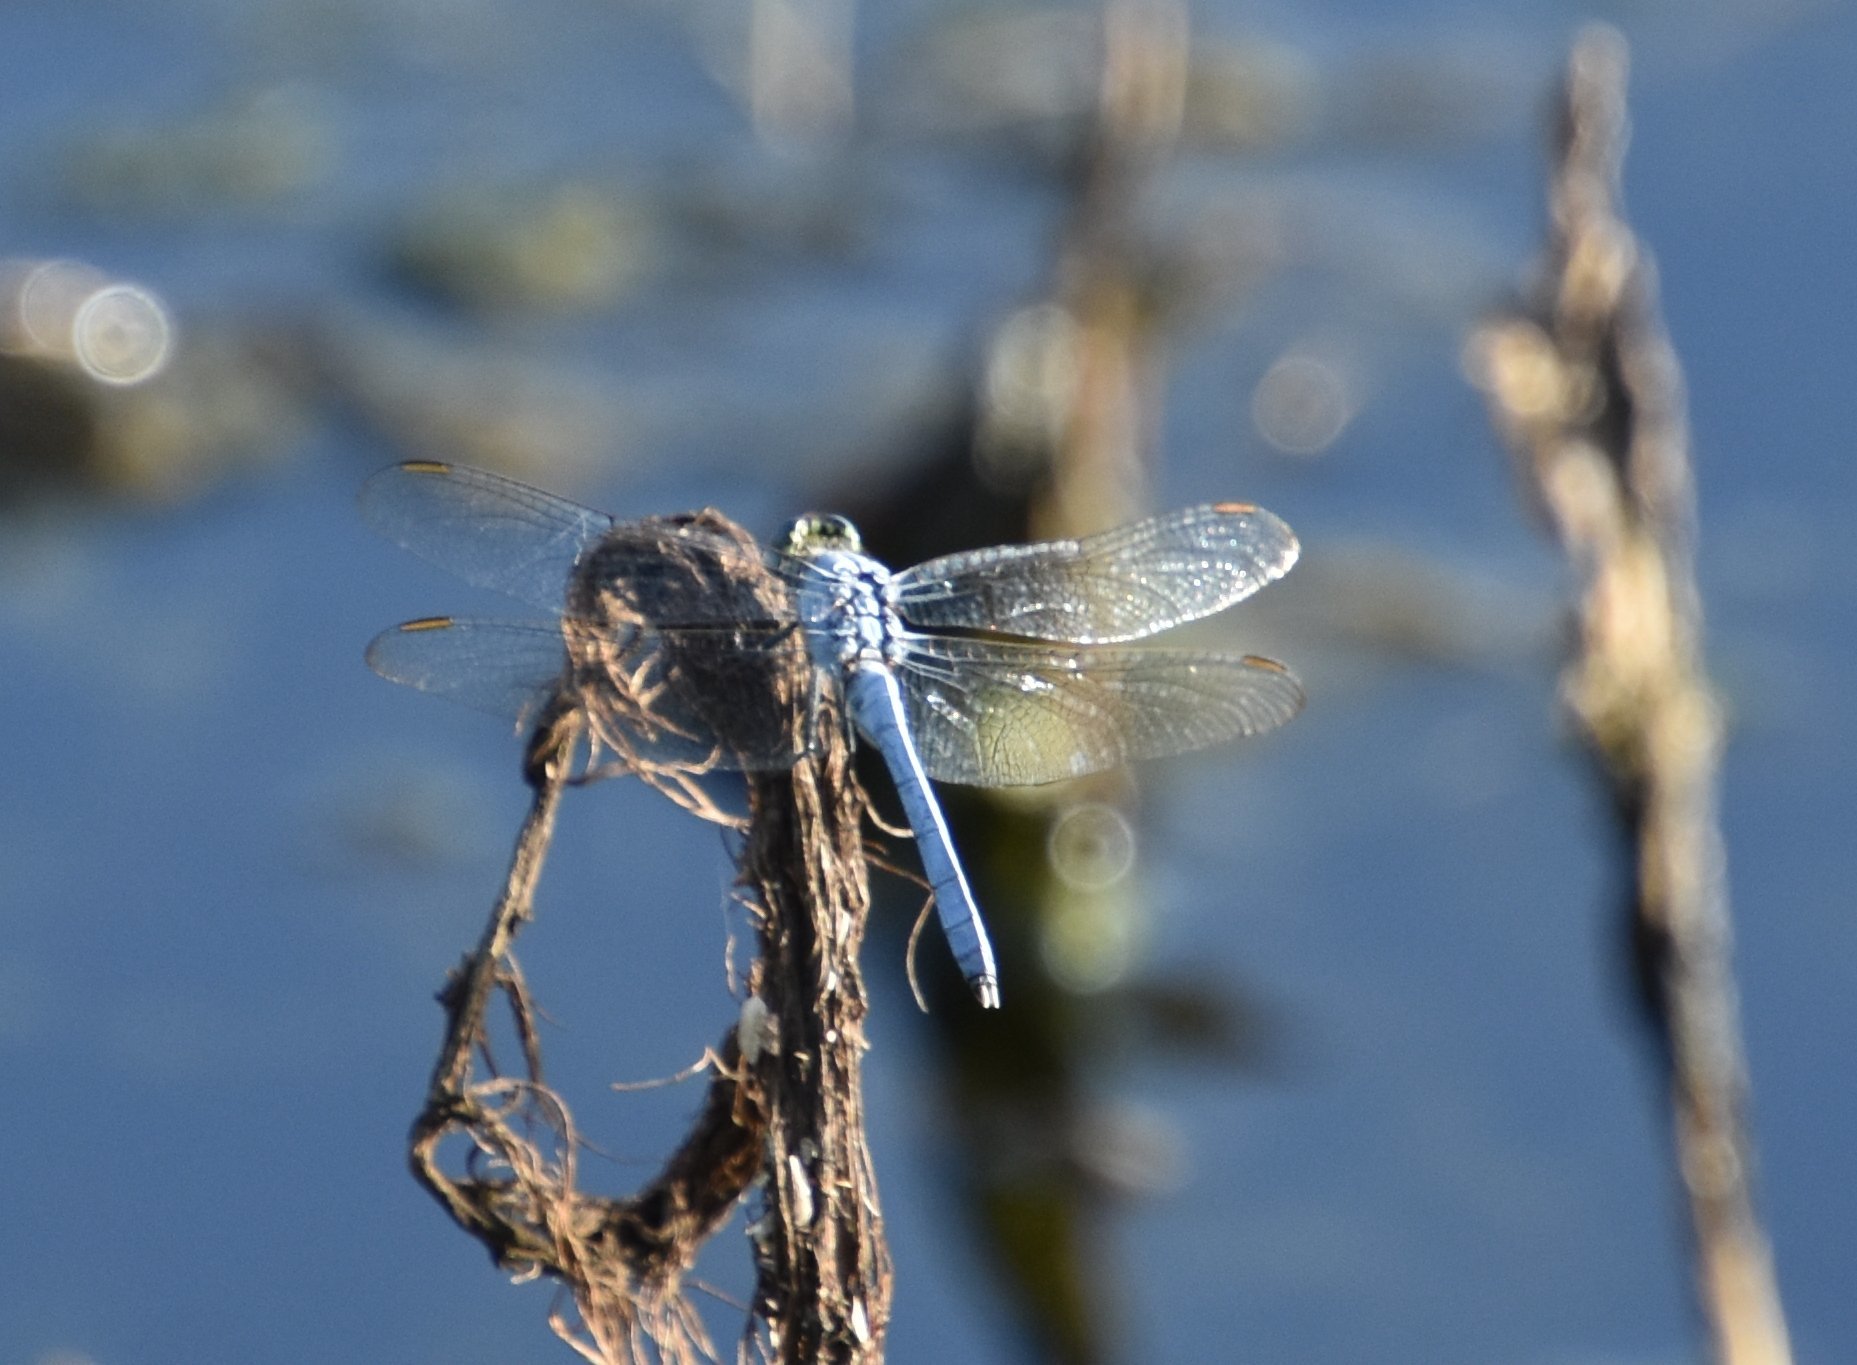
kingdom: Animalia
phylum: Arthropoda
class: Insecta
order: Odonata
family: Libellulidae
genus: Erythemis
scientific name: Erythemis simplicicollis
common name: Eastern pondhawk
